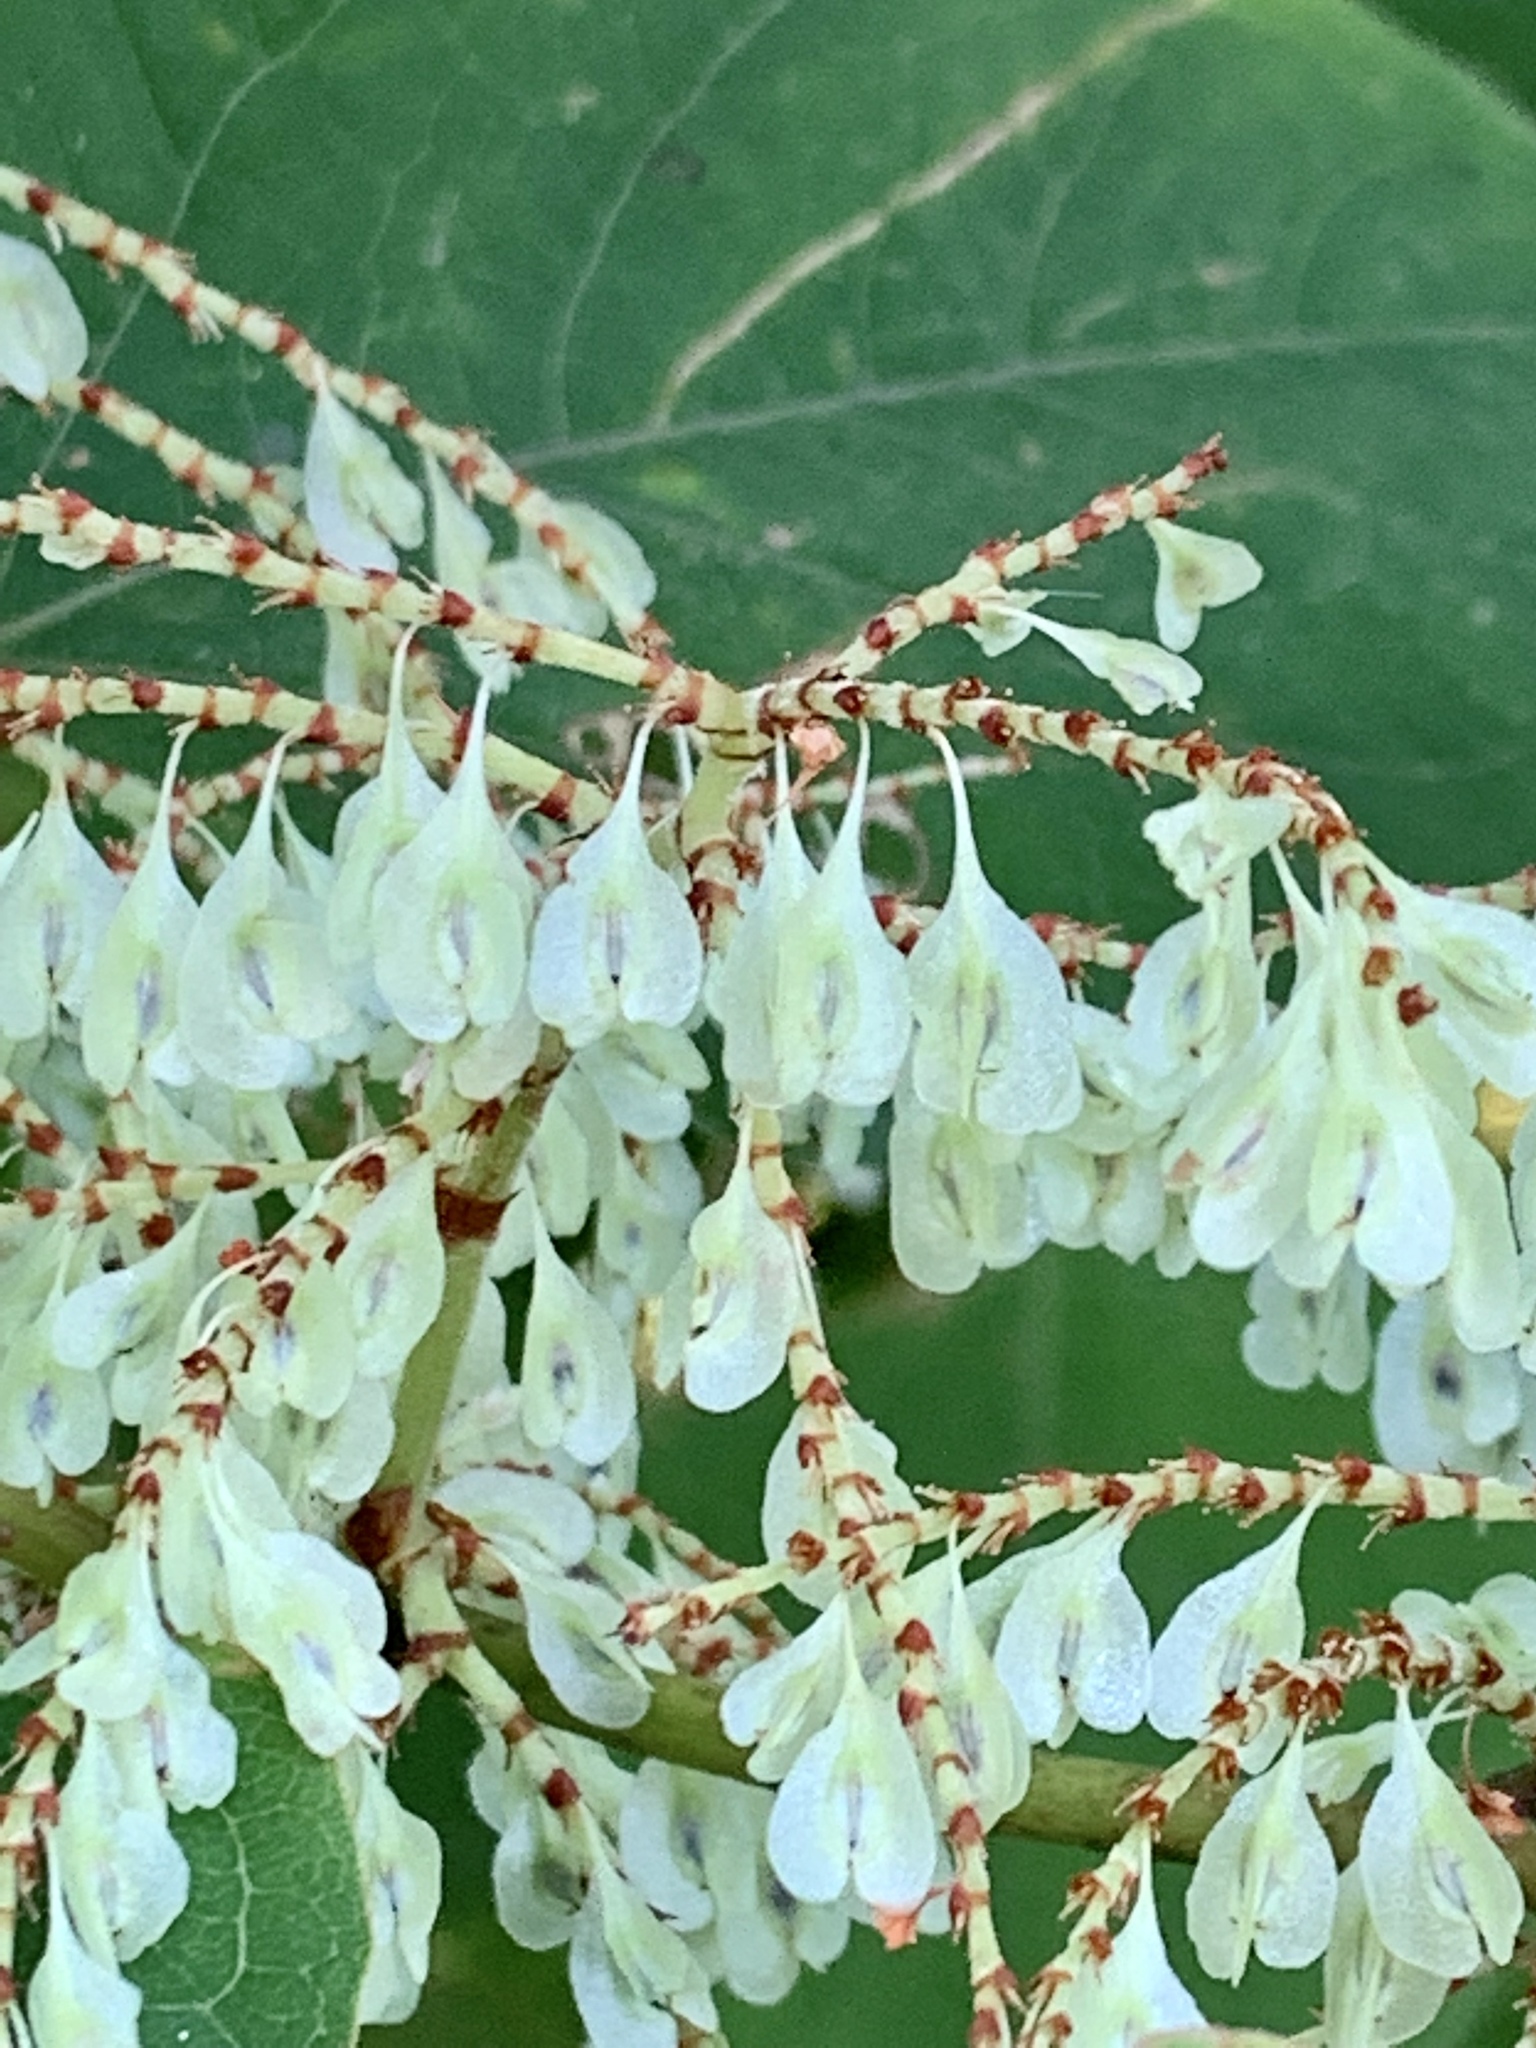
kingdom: Plantae
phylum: Tracheophyta
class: Magnoliopsida
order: Caryophyllales
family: Polygonaceae
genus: Reynoutria
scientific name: Reynoutria japonica
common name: Japanese knotweed
